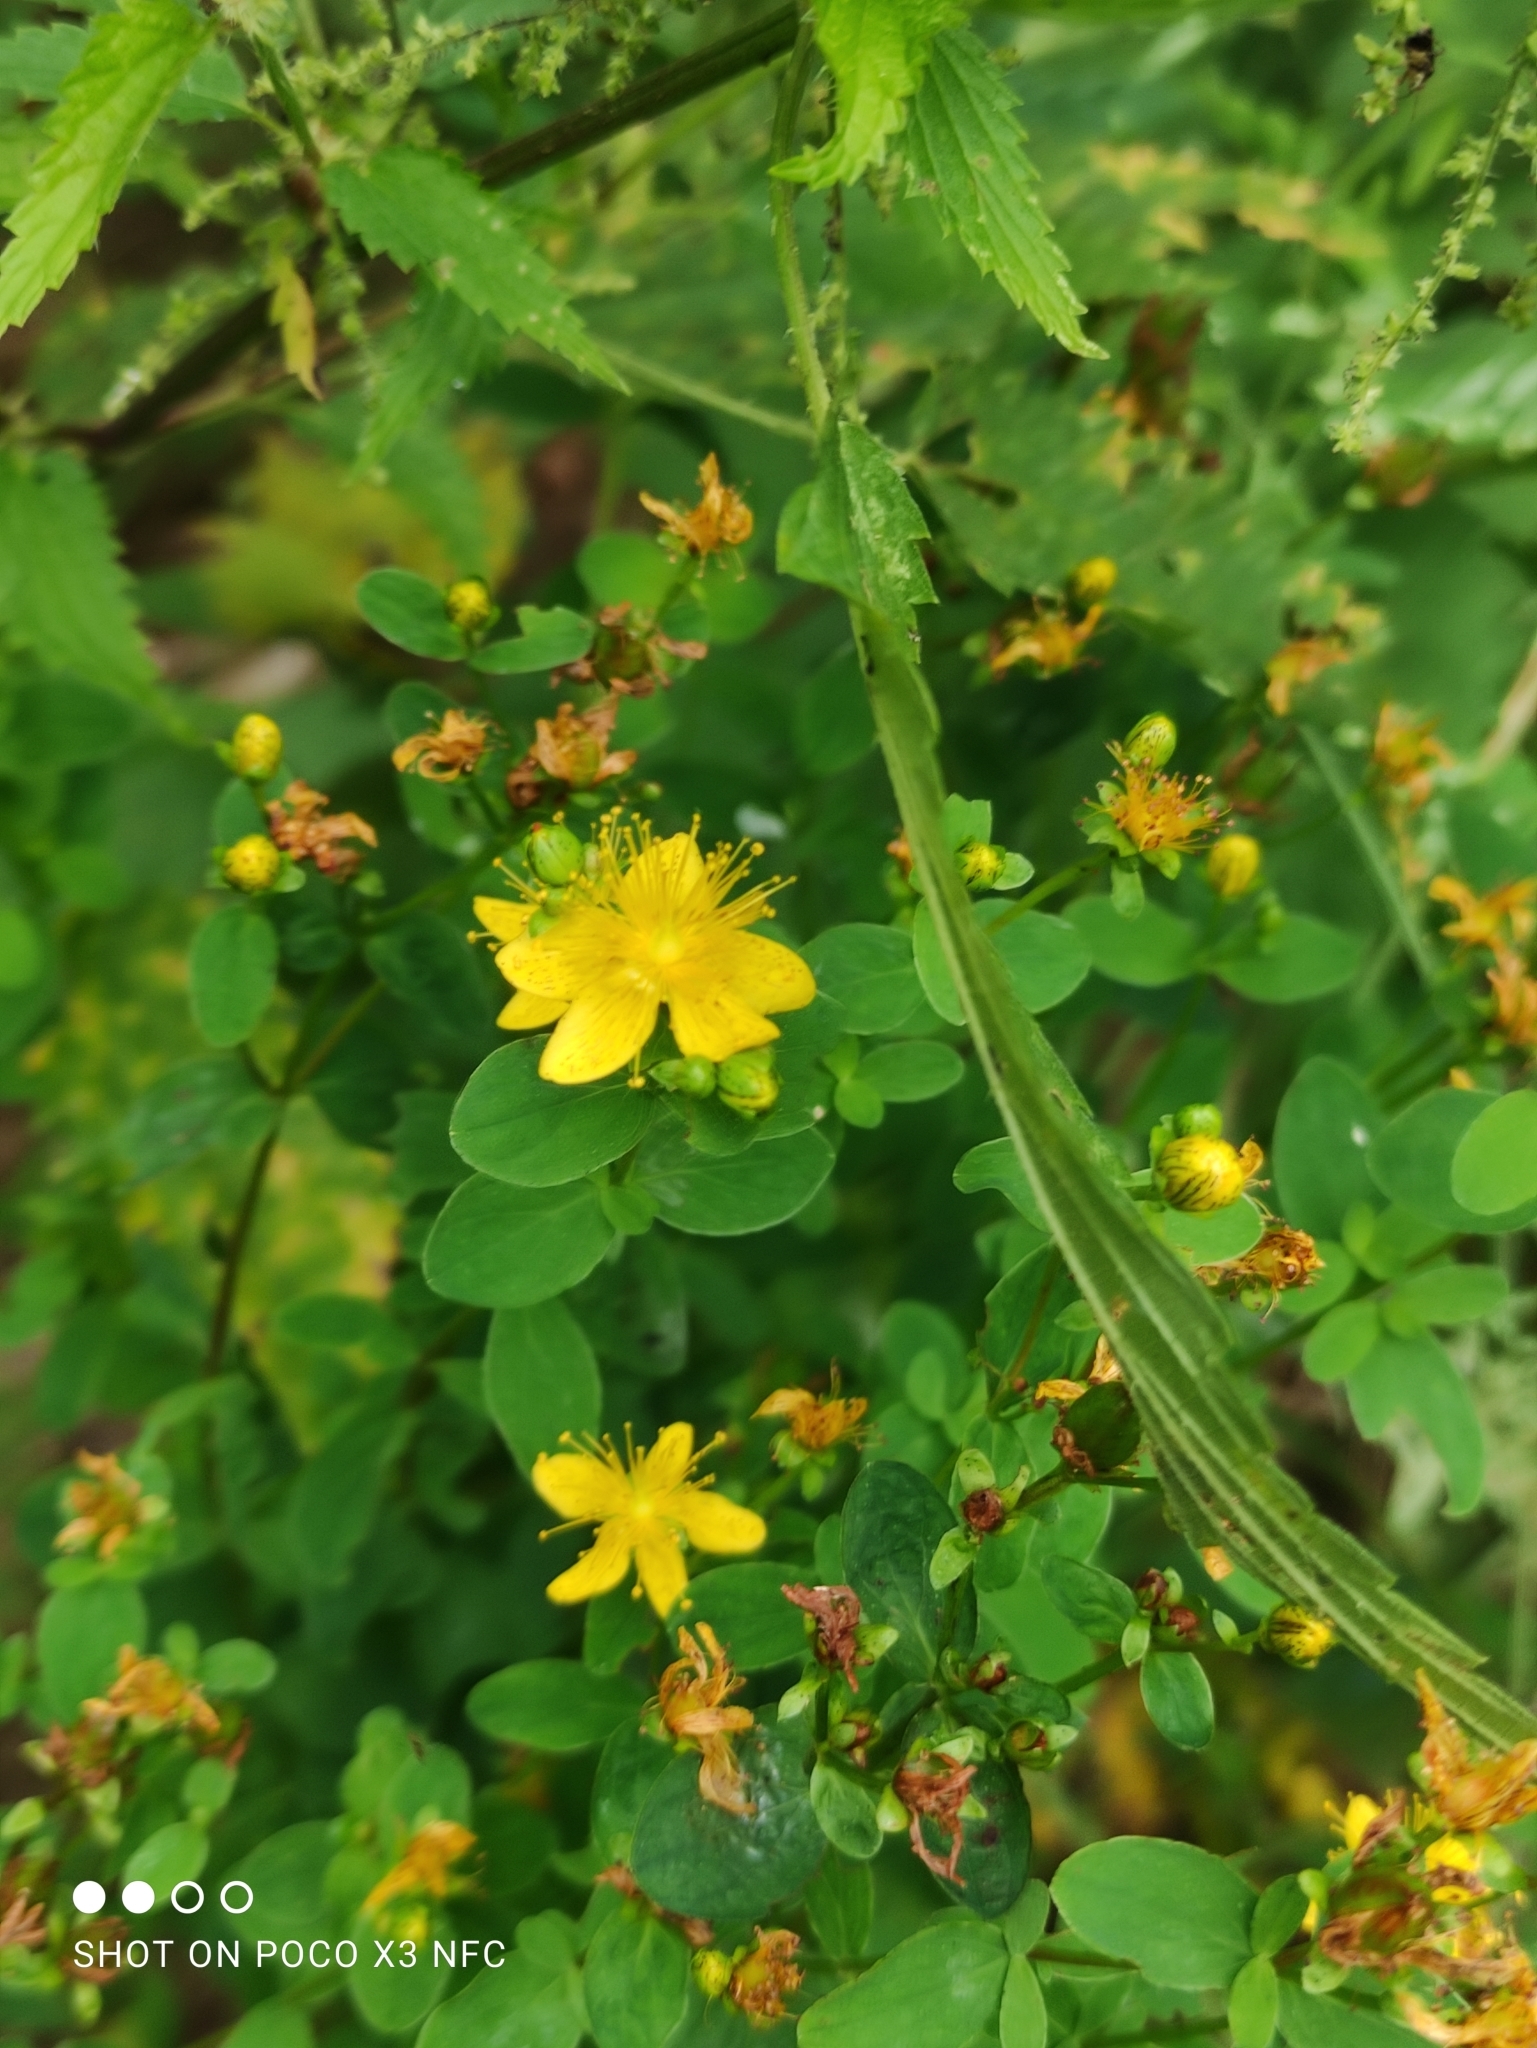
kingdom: Plantae
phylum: Tracheophyta
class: Magnoliopsida
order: Malpighiales
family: Hypericaceae
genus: Hypericum
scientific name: Hypericum maculatum
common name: Imperforate st. john's-wort
